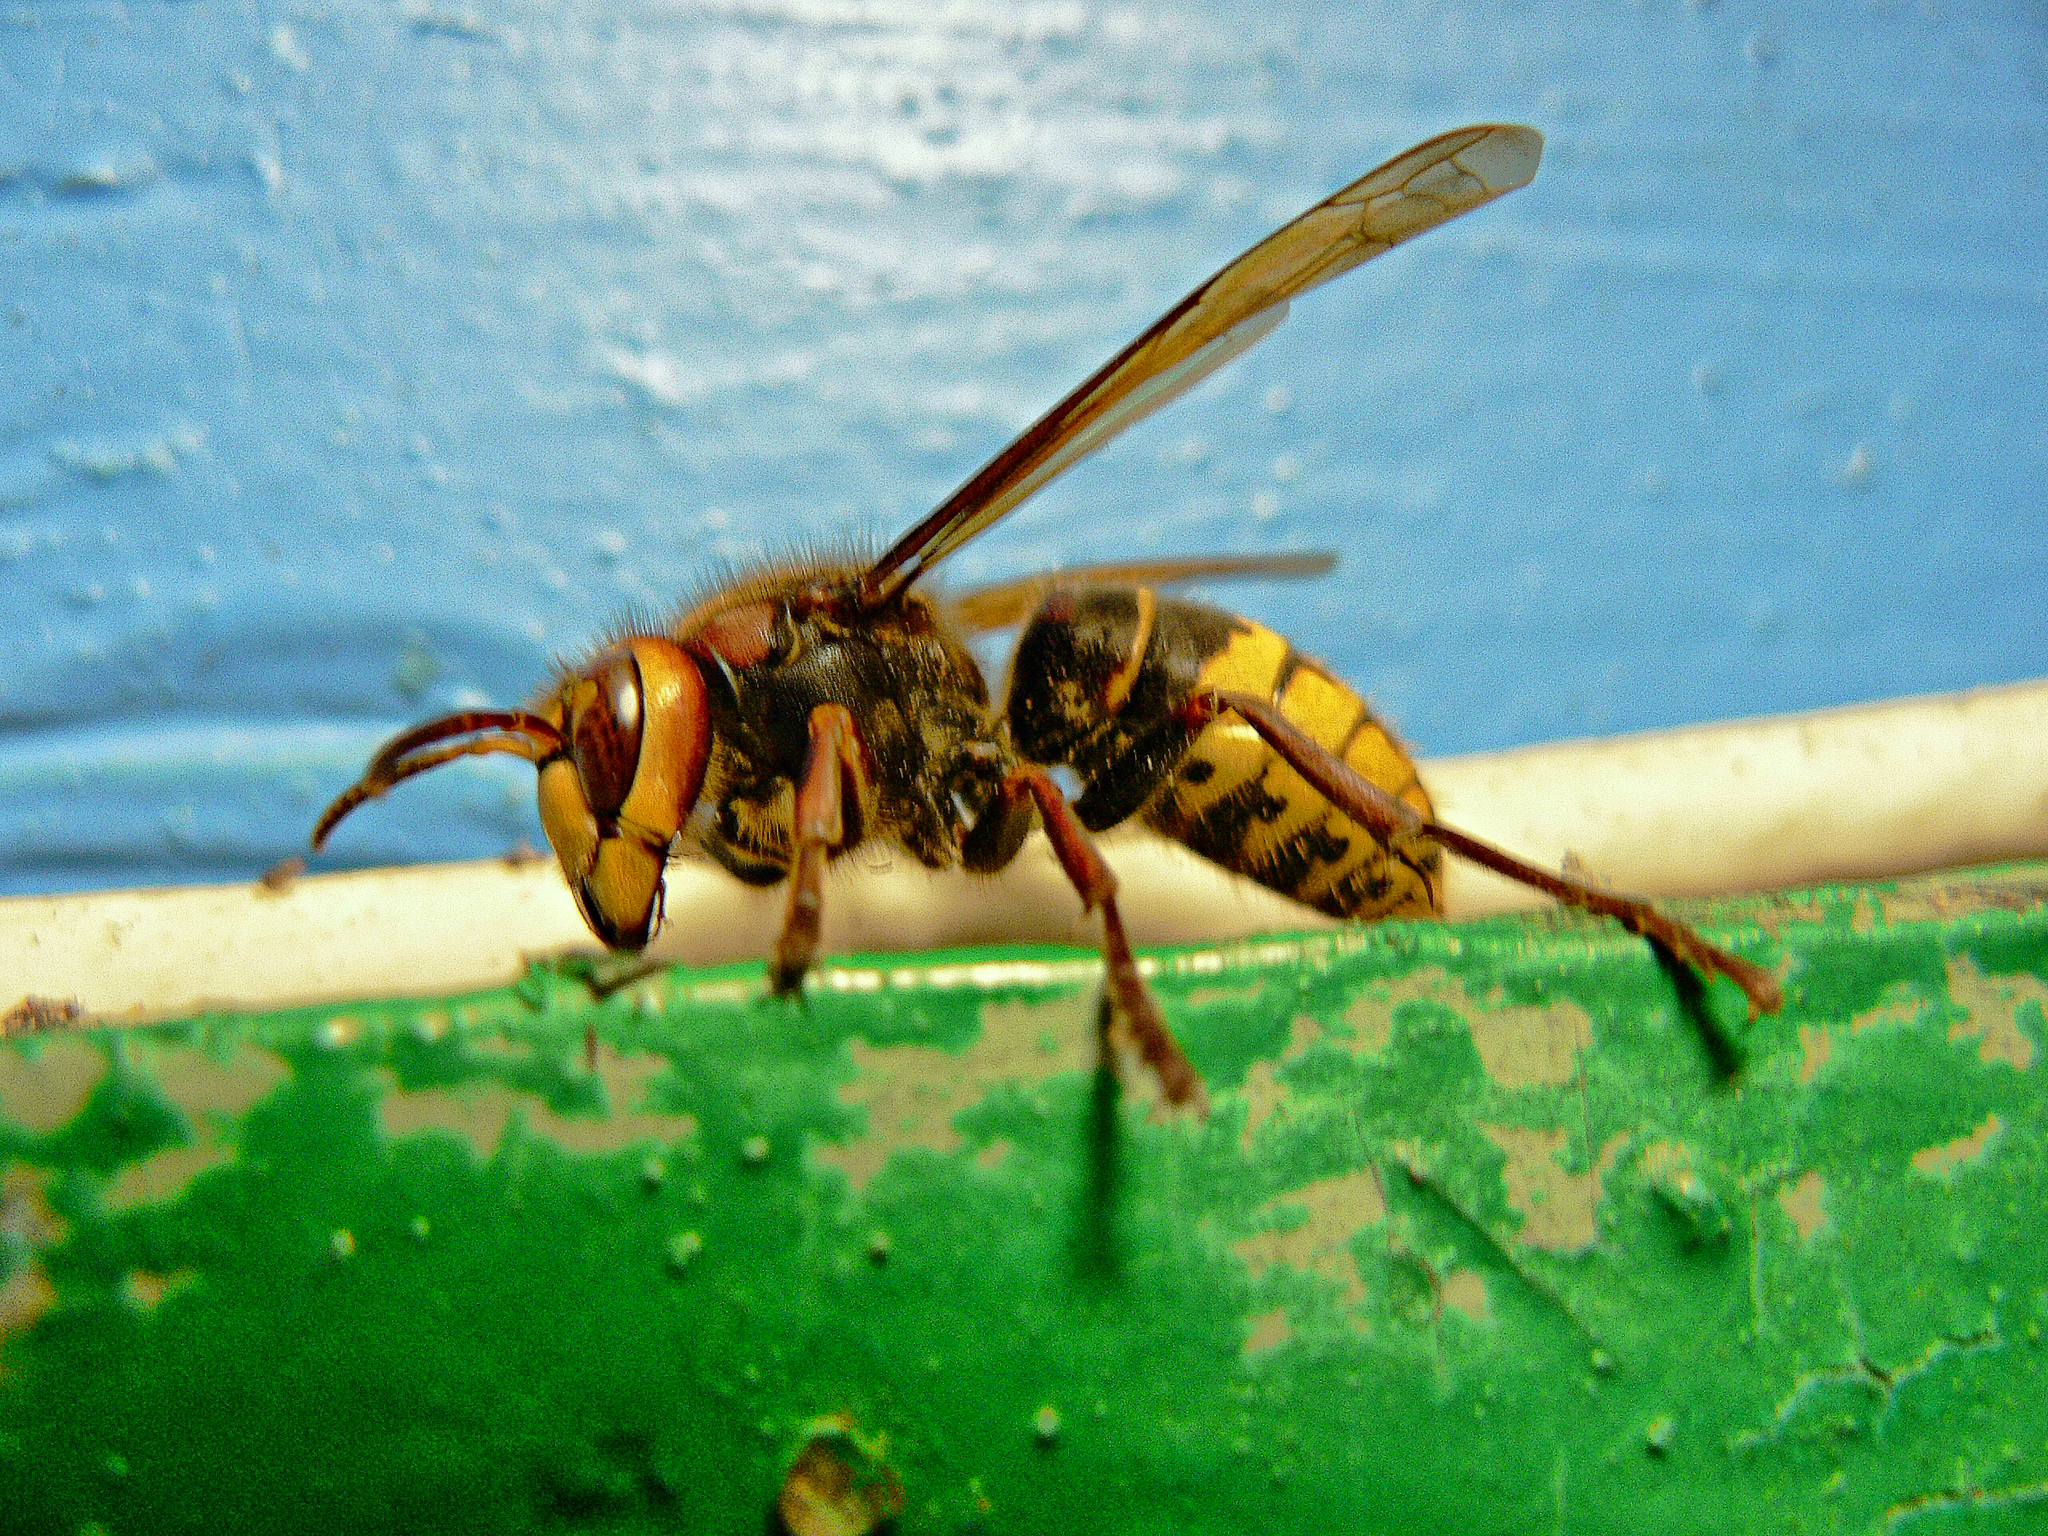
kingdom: Animalia
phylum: Arthropoda
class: Insecta
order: Hymenoptera
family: Vespidae
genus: Vespa
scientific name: Vespa crabro
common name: Hornet
